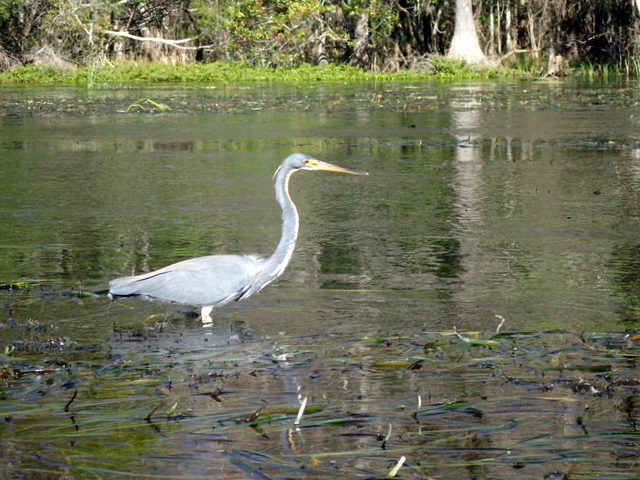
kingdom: Animalia
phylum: Chordata
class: Aves
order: Pelecaniformes
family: Ardeidae
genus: Egretta
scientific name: Egretta tricolor
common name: Tricolored heron
